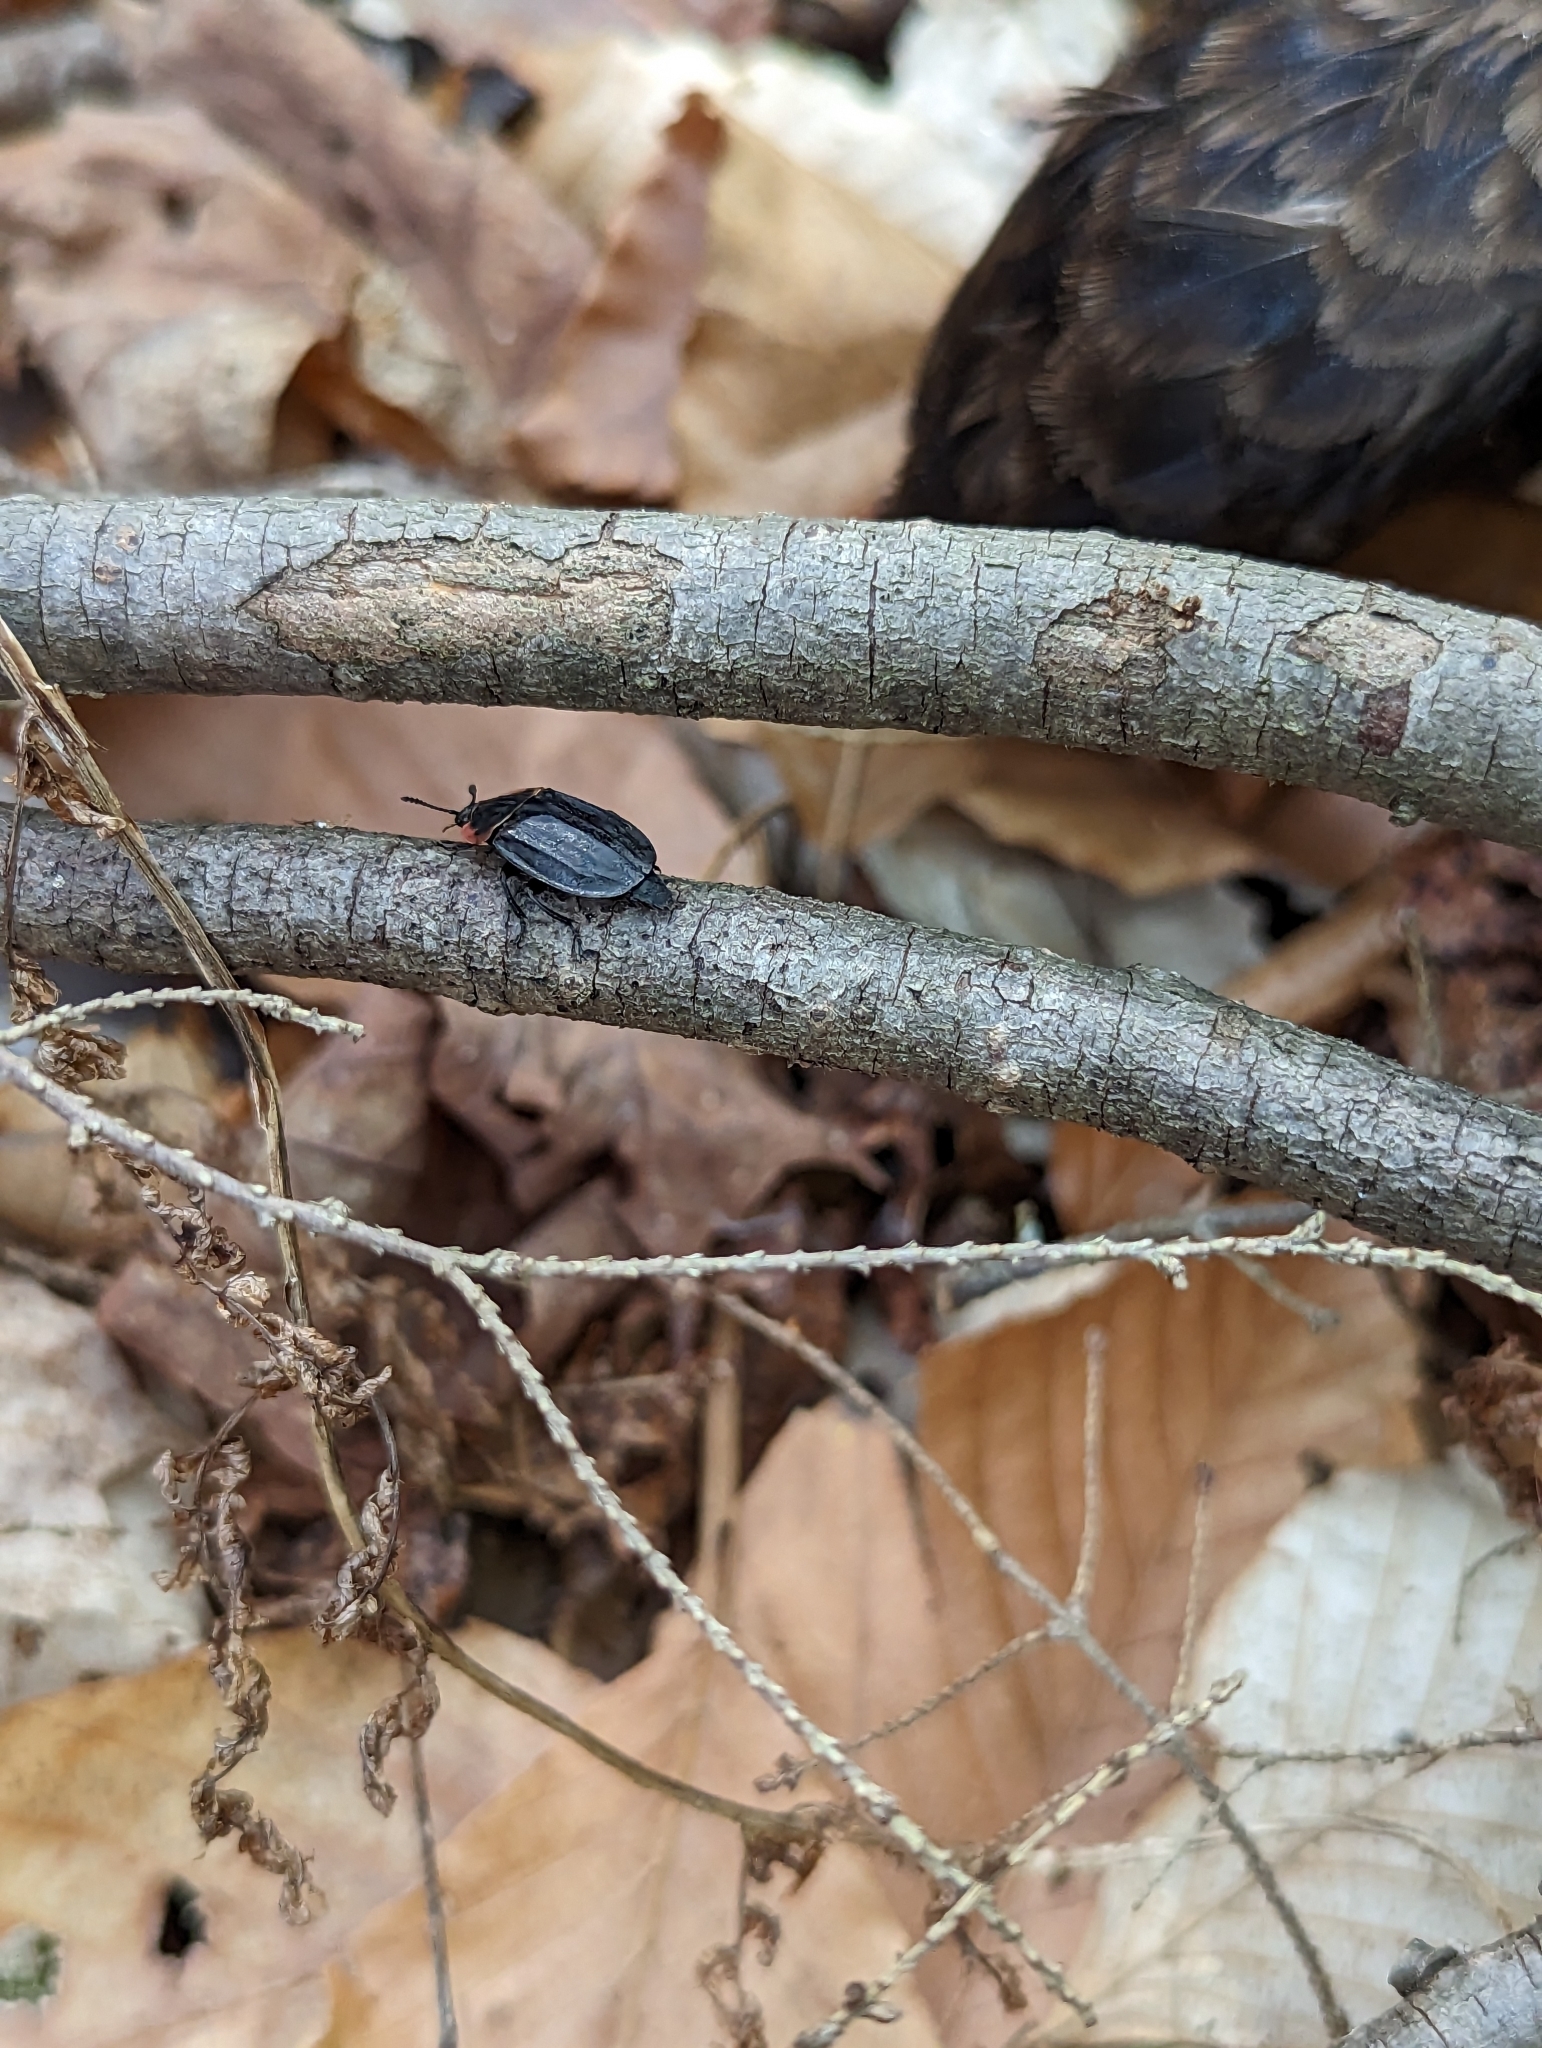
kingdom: Animalia
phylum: Arthropoda
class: Insecta
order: Coleoptera
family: Staphylinidae
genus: Oiceoptoma
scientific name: Oiceoptoma noveboracense
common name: Margined carrion beetle
